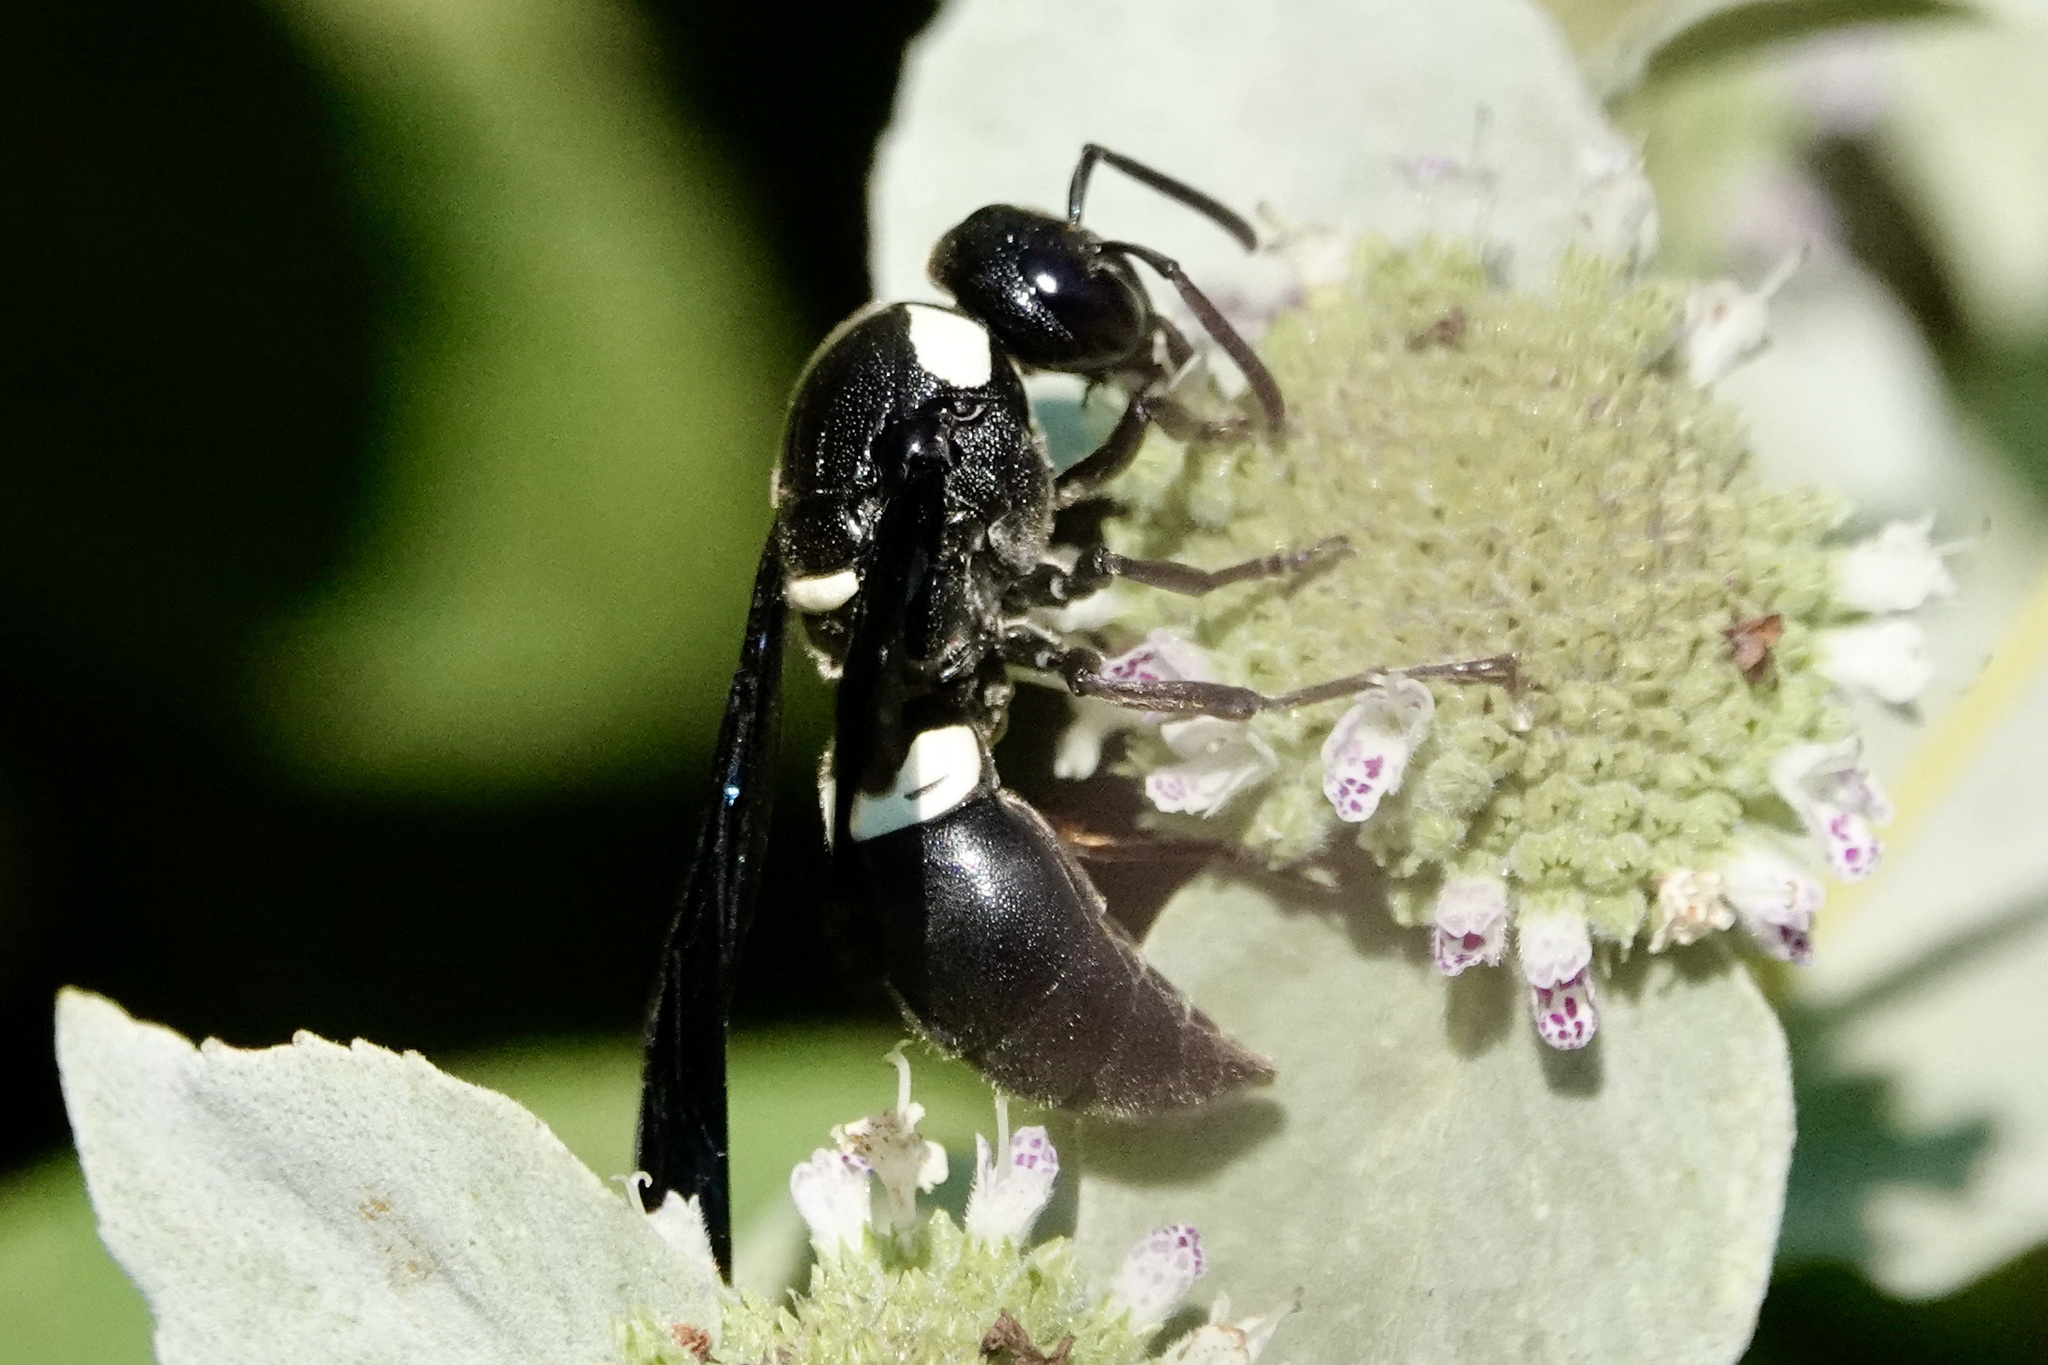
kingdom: Animalia
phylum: Arthropoda
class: Insecta
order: Hymenoptera
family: Eumenidae
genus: Monobia
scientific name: Monobia quadridens
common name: Four-toothed mason wasp
